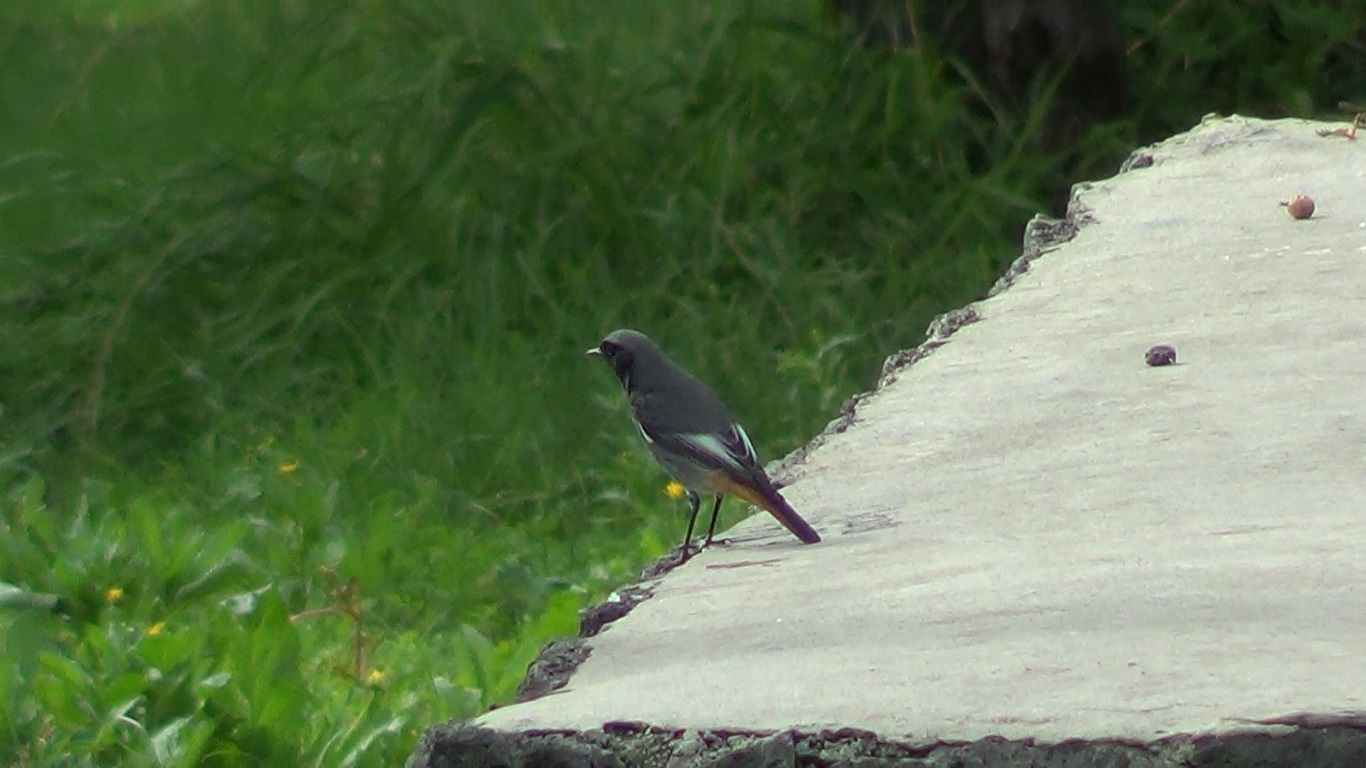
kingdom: Animalia
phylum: Chordata
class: Aves
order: Passeriformes
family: Muscicapidae
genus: Phoenicurus
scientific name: Phoenicurus ochruros
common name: Black redstart
